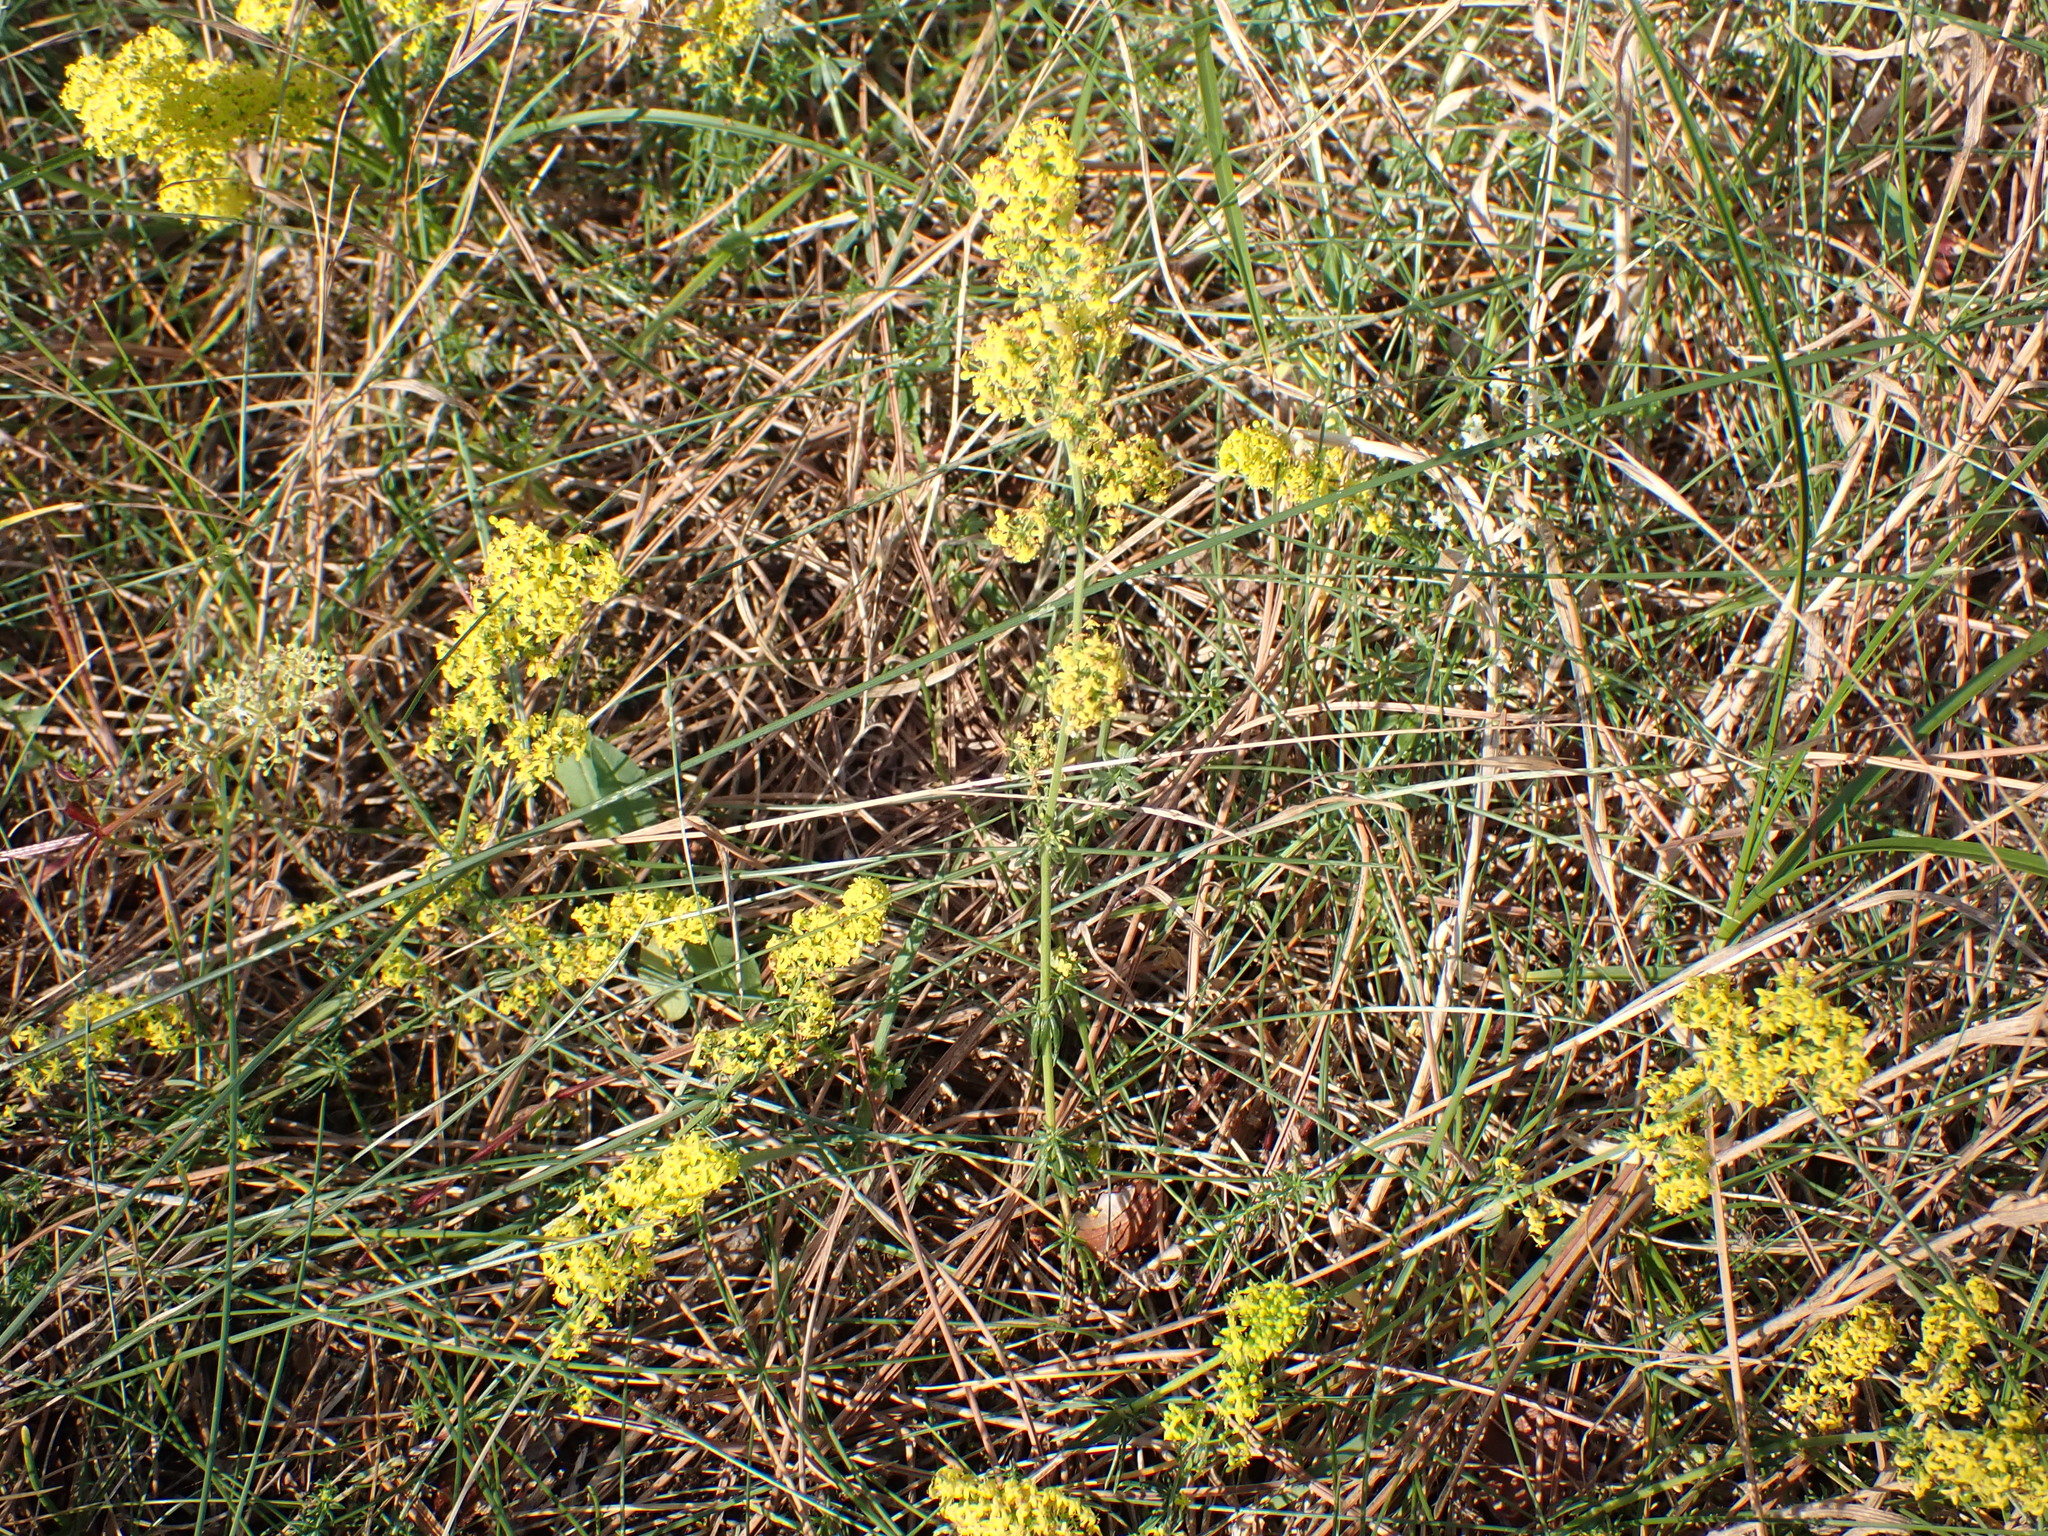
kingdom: Plantae
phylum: Tracheophyta
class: Magnoliopsida
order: Gentianales
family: Rubiaceae
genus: Galium
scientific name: Galium verum
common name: Lady's bedstraw
